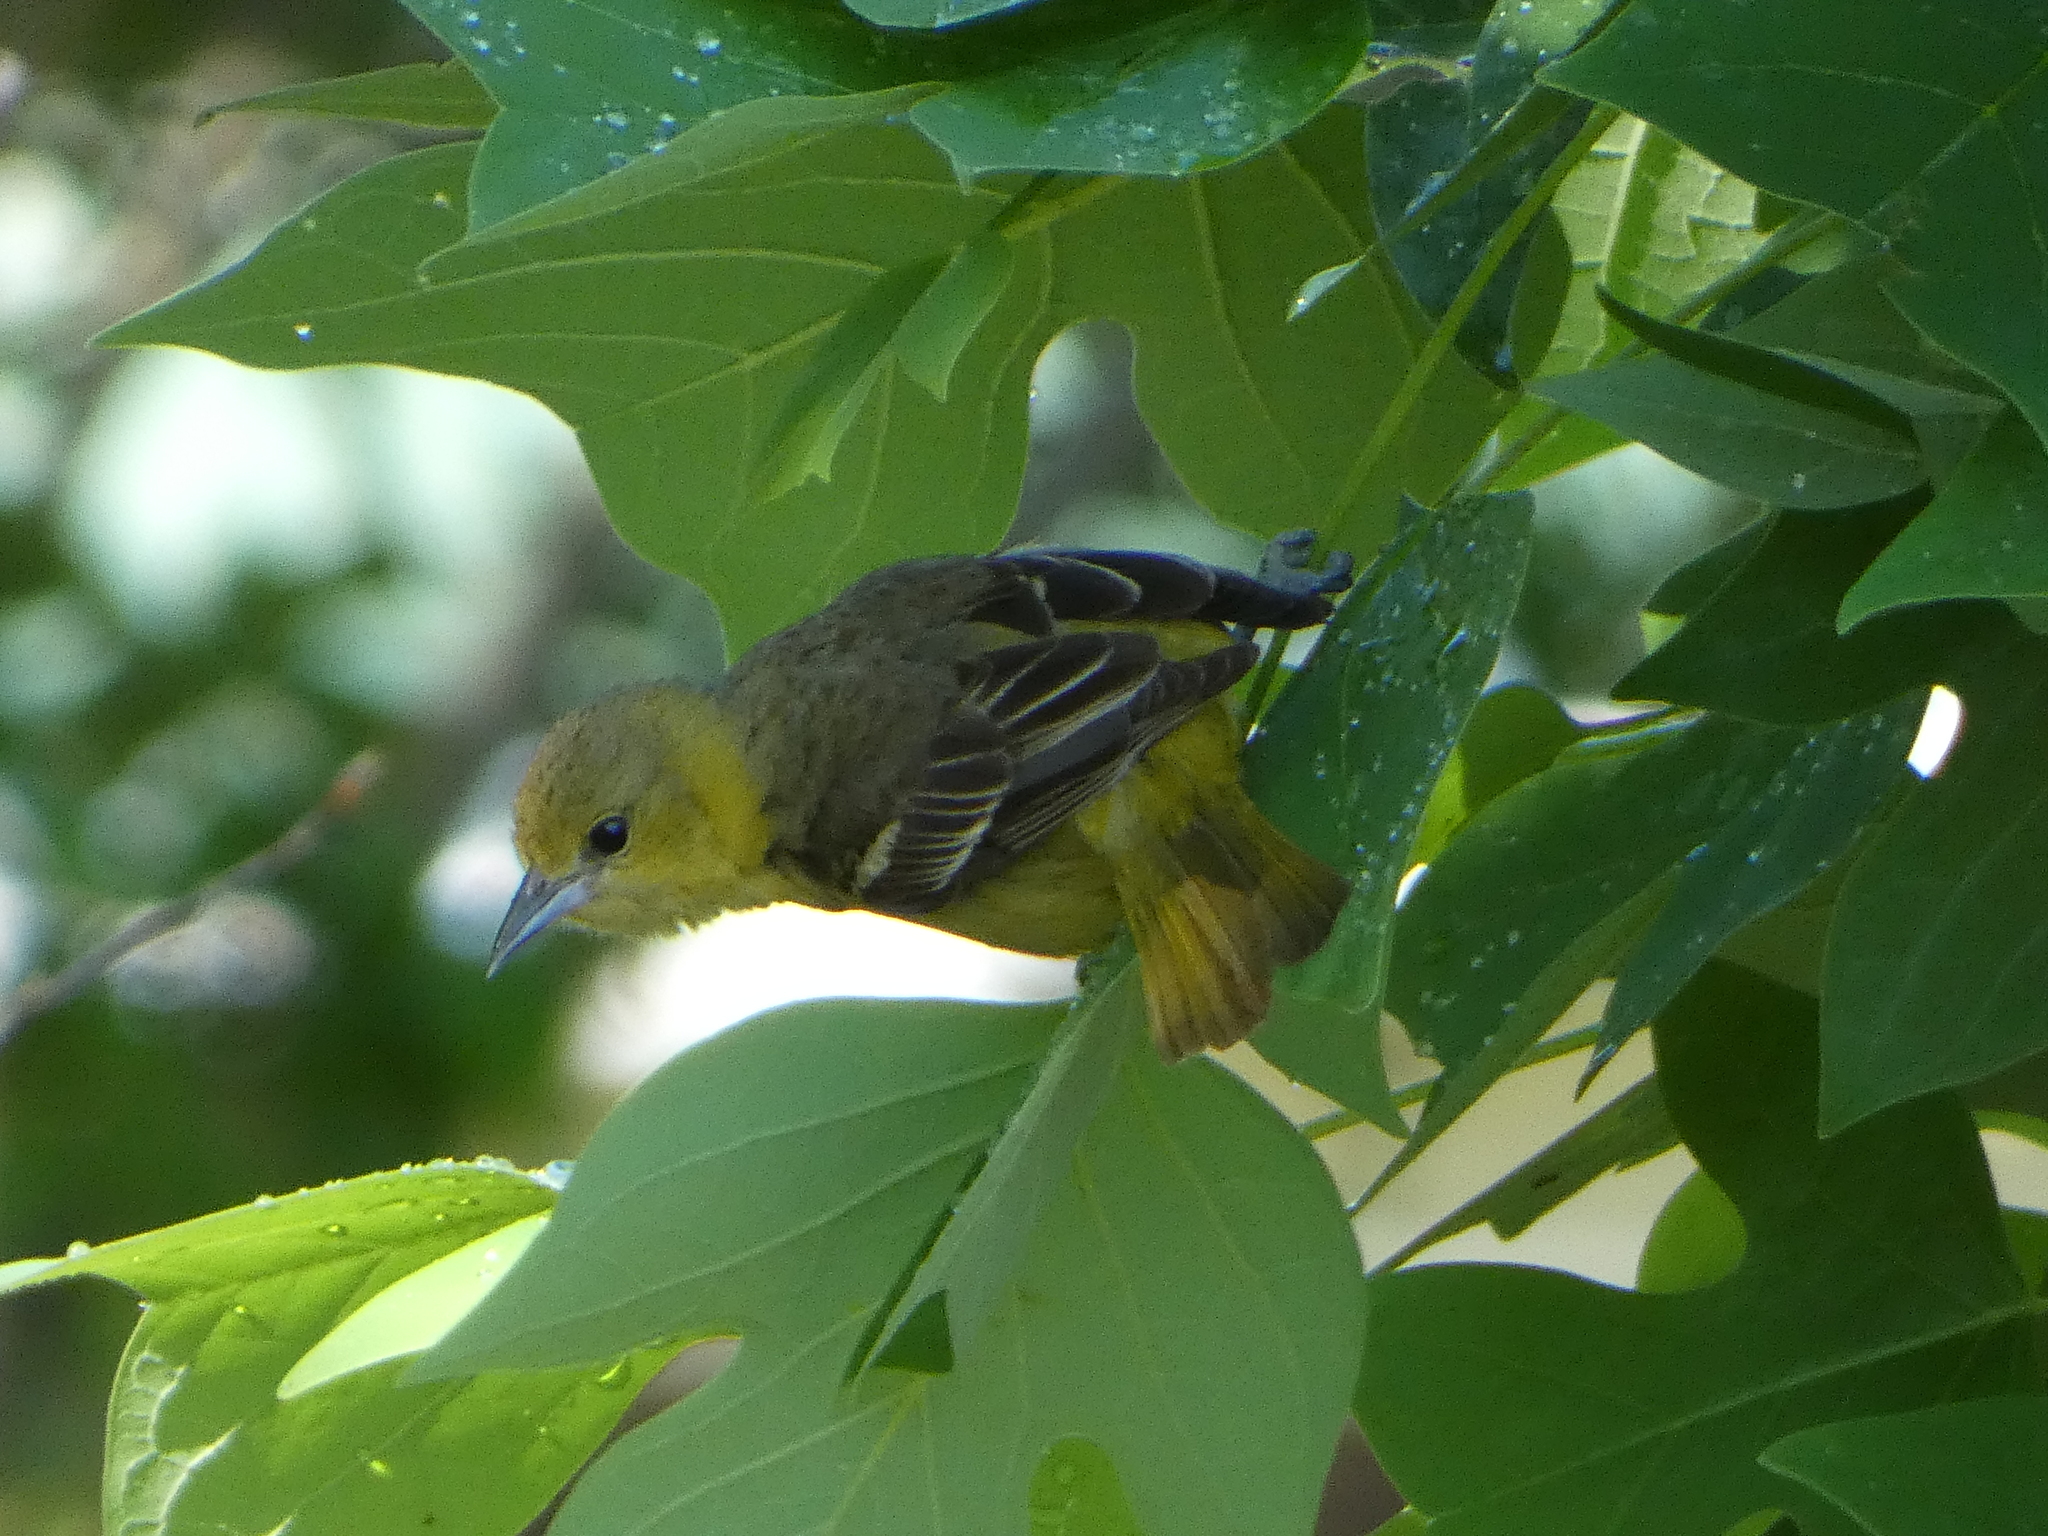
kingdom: Animalia
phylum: Chordata
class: Aves
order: Passeriformes
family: Icteridae
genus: Icterus
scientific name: Icterus spurius
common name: Orchard oriole
